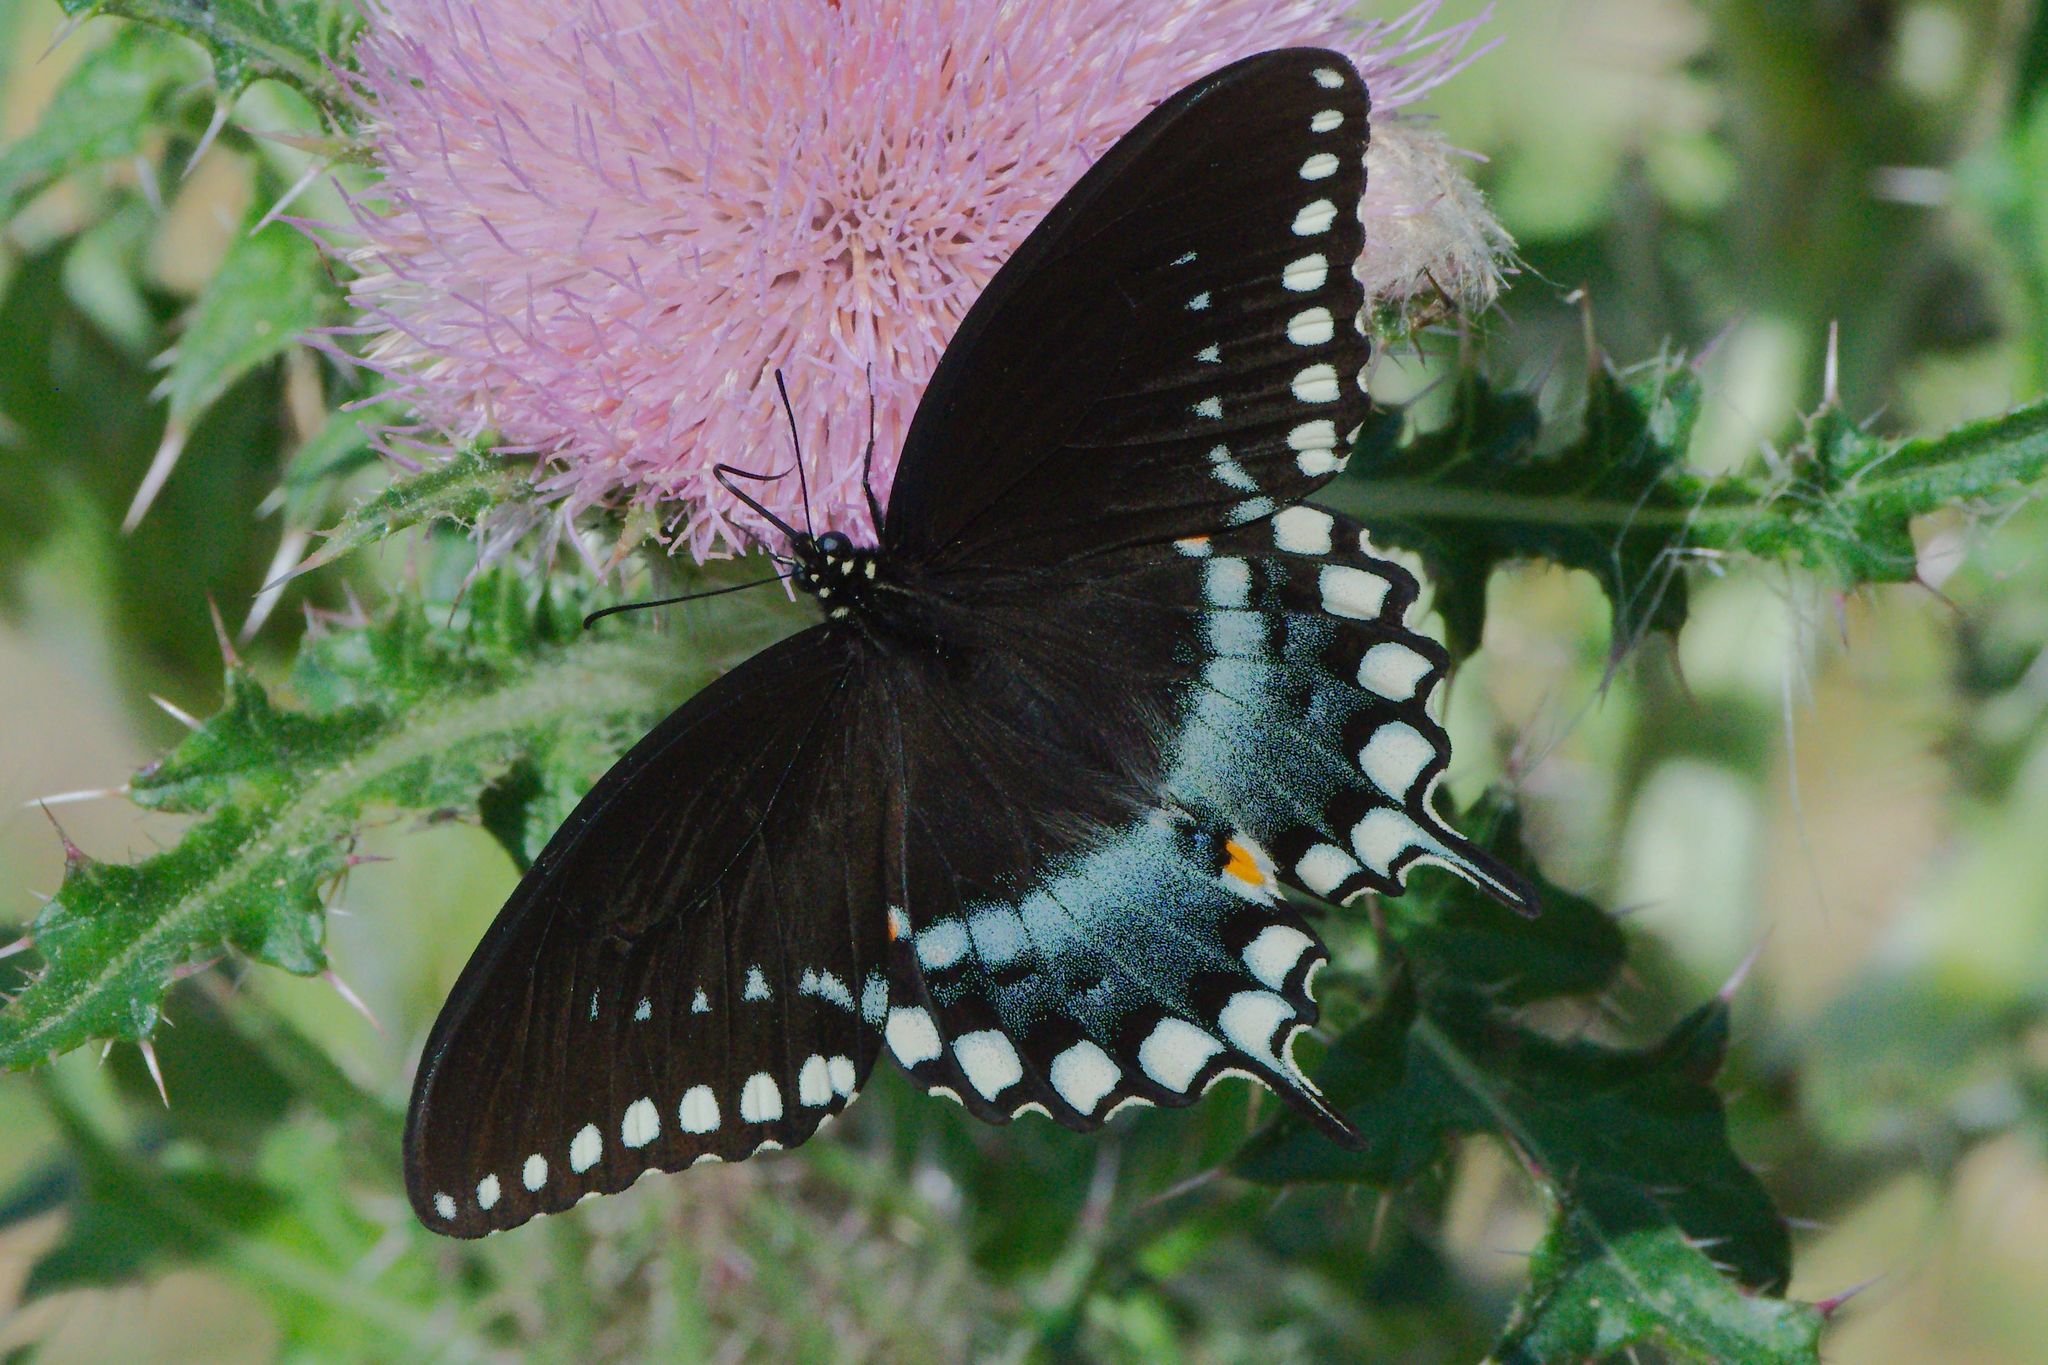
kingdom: Animalia
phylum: Arthropoda
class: Insecta
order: Lepidoptera
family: Papilionidae
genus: Papilio
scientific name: Papilio troilus
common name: Spicebush swallowtail
